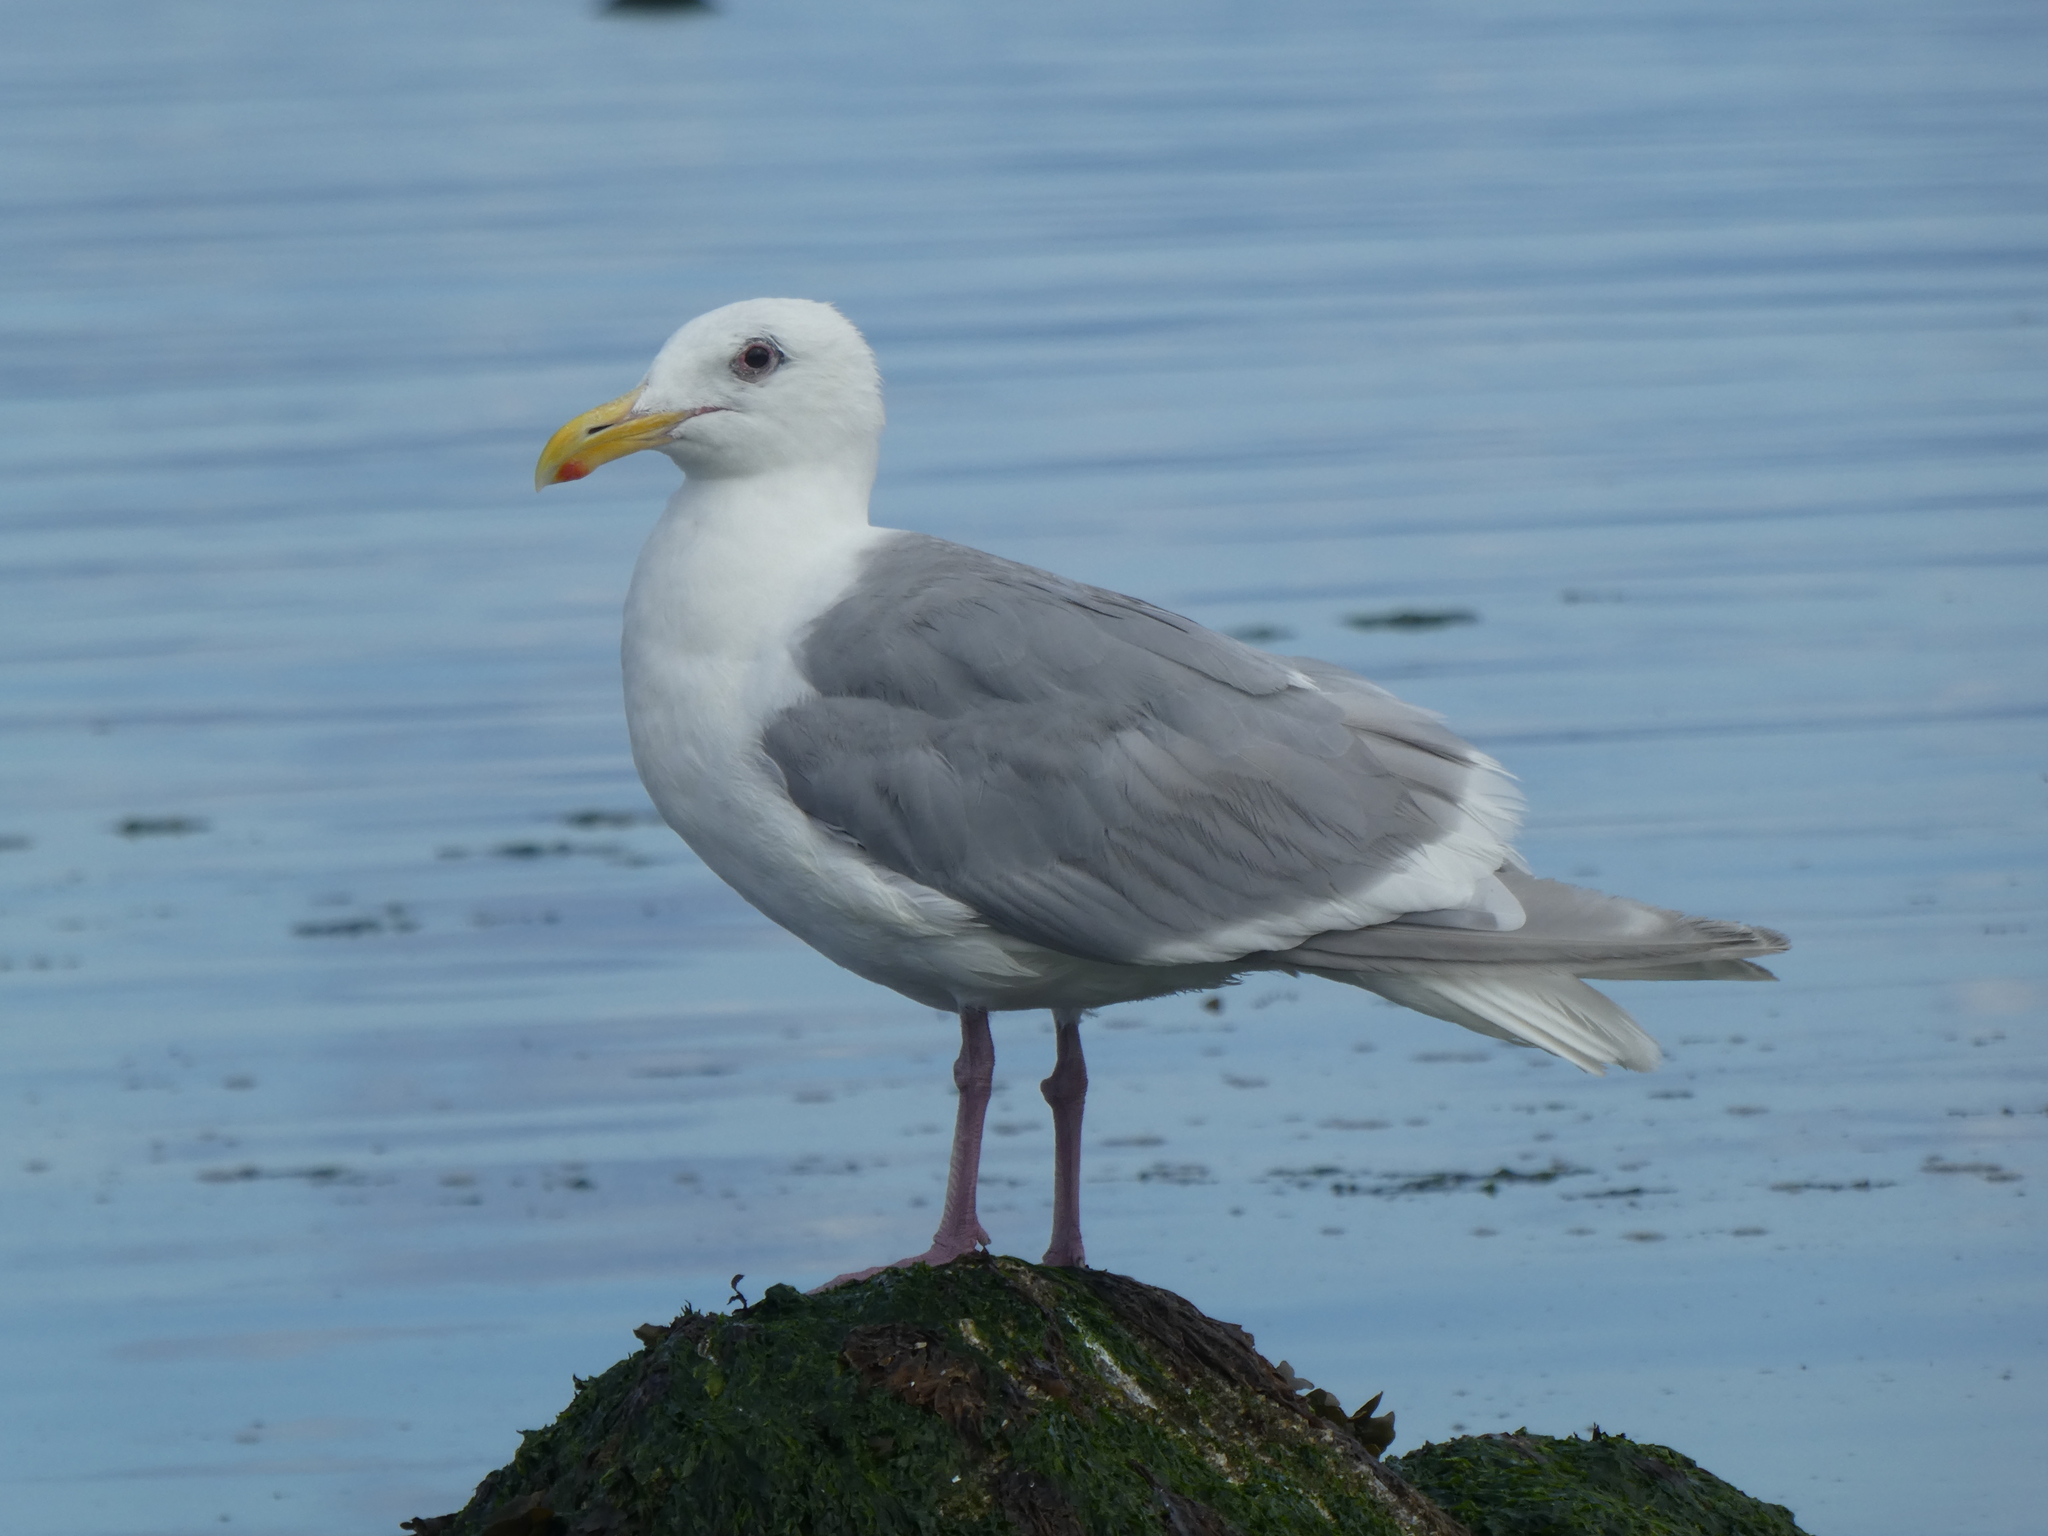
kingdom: Animalia
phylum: Chordata
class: Aves
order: Charadriiformes
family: Laridae
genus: Larus
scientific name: Larus
